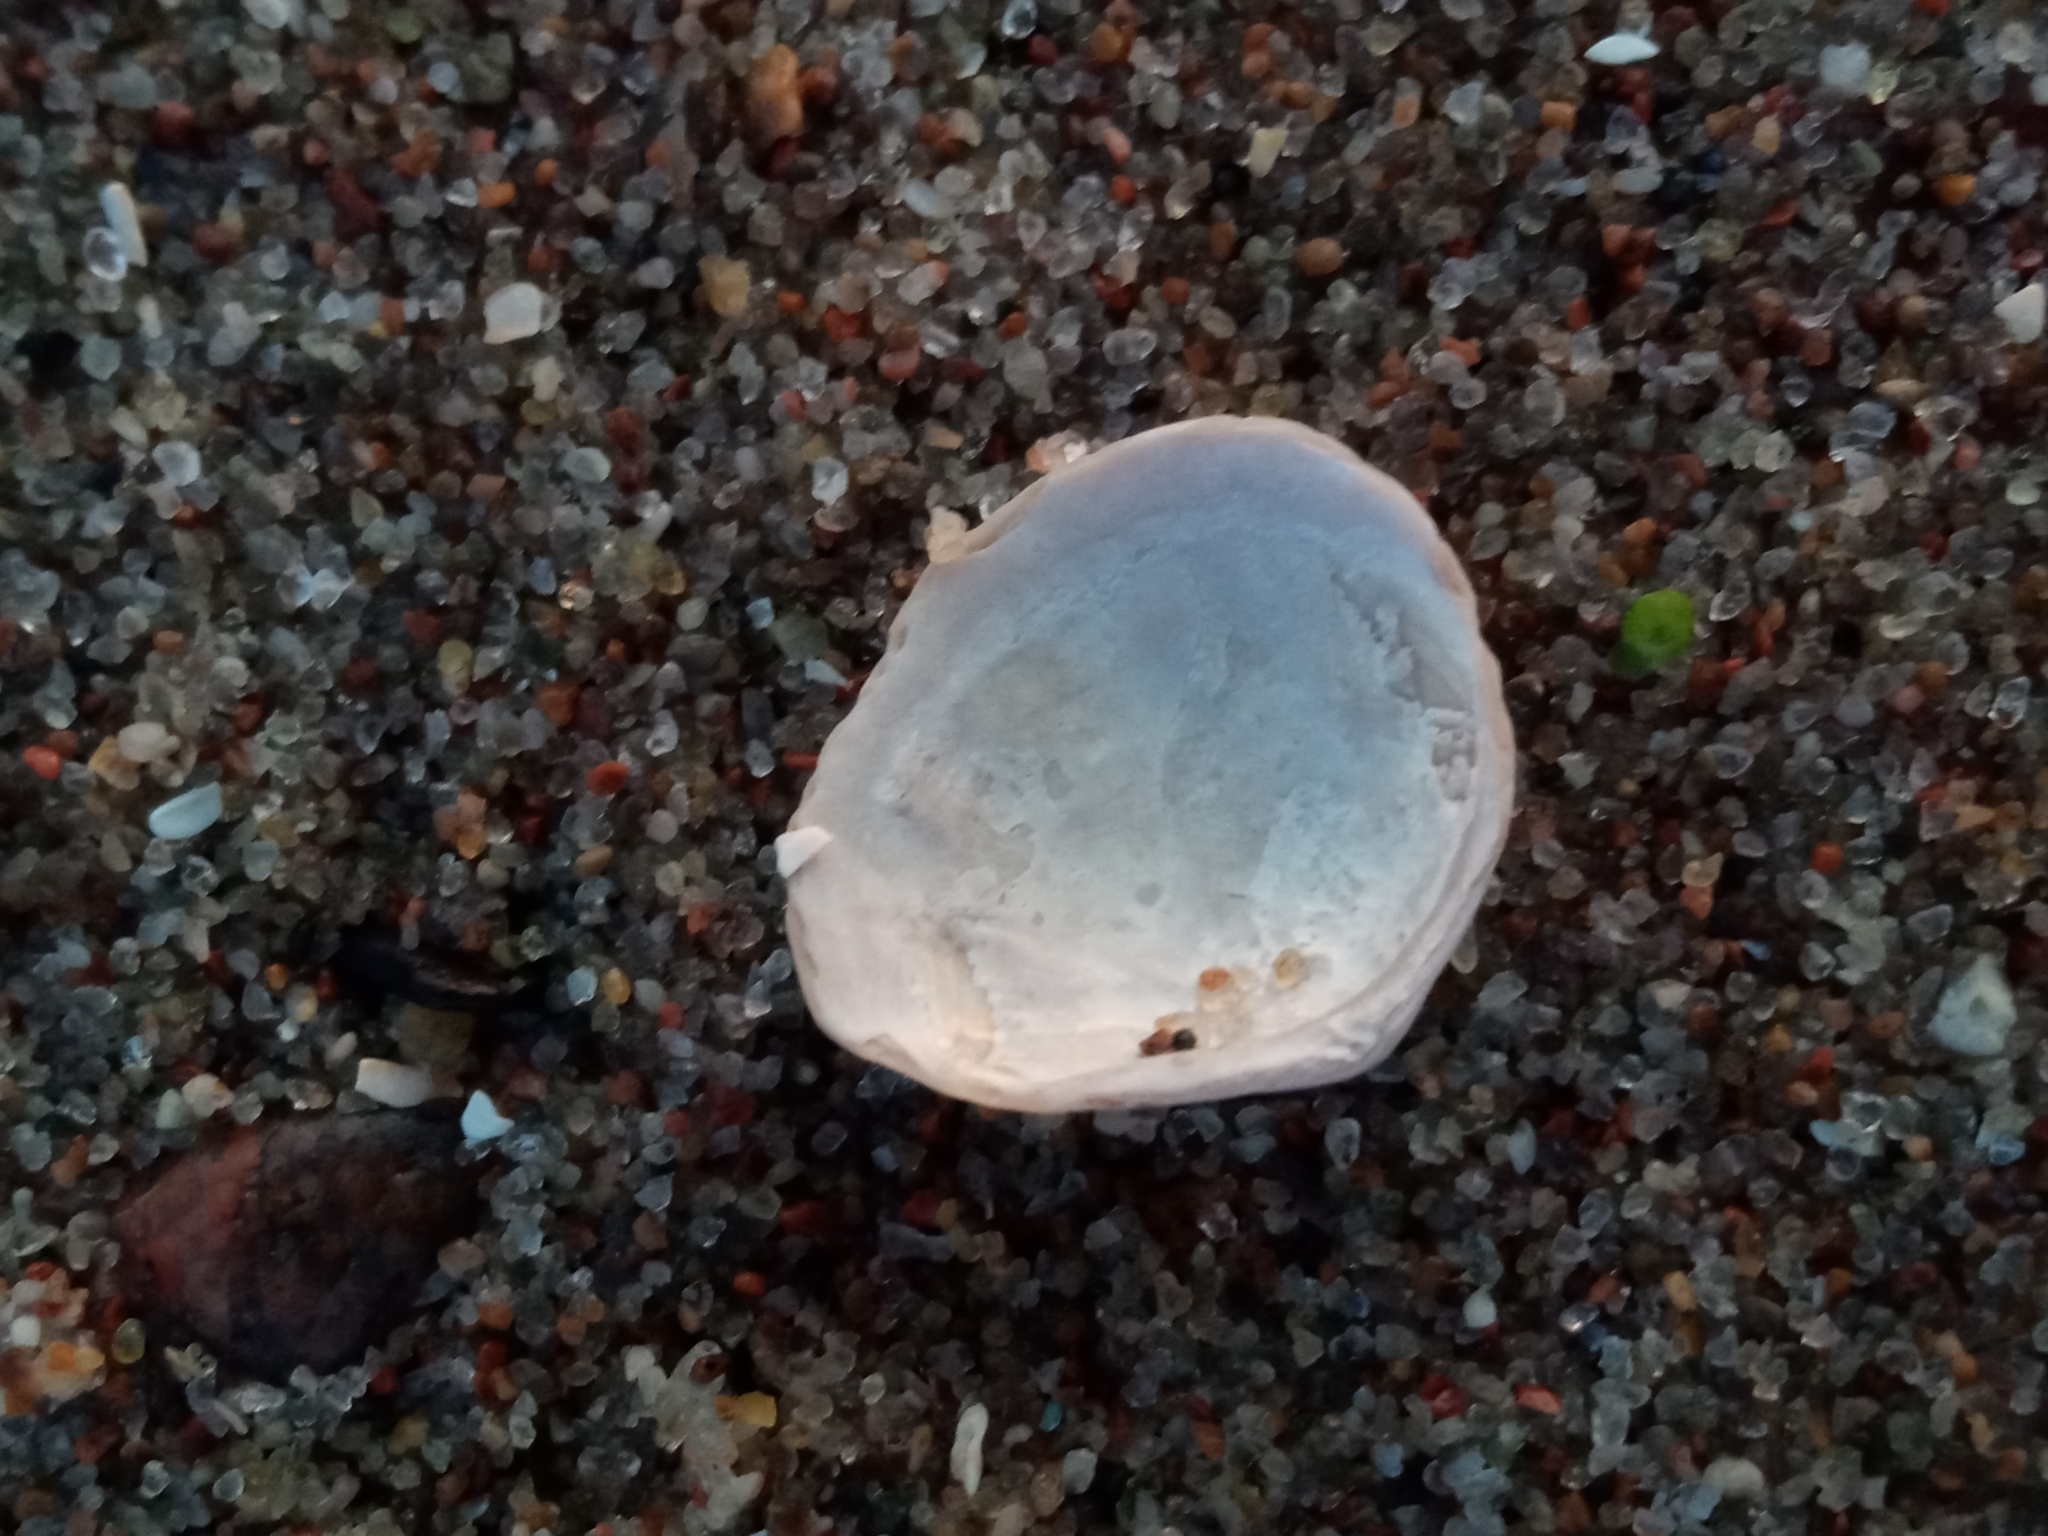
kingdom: Animalia
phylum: Mollusca
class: Bivalvia
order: Cardiida
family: Tellinidae
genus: Macoma
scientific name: Macoma balthica
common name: Baltic tellin
